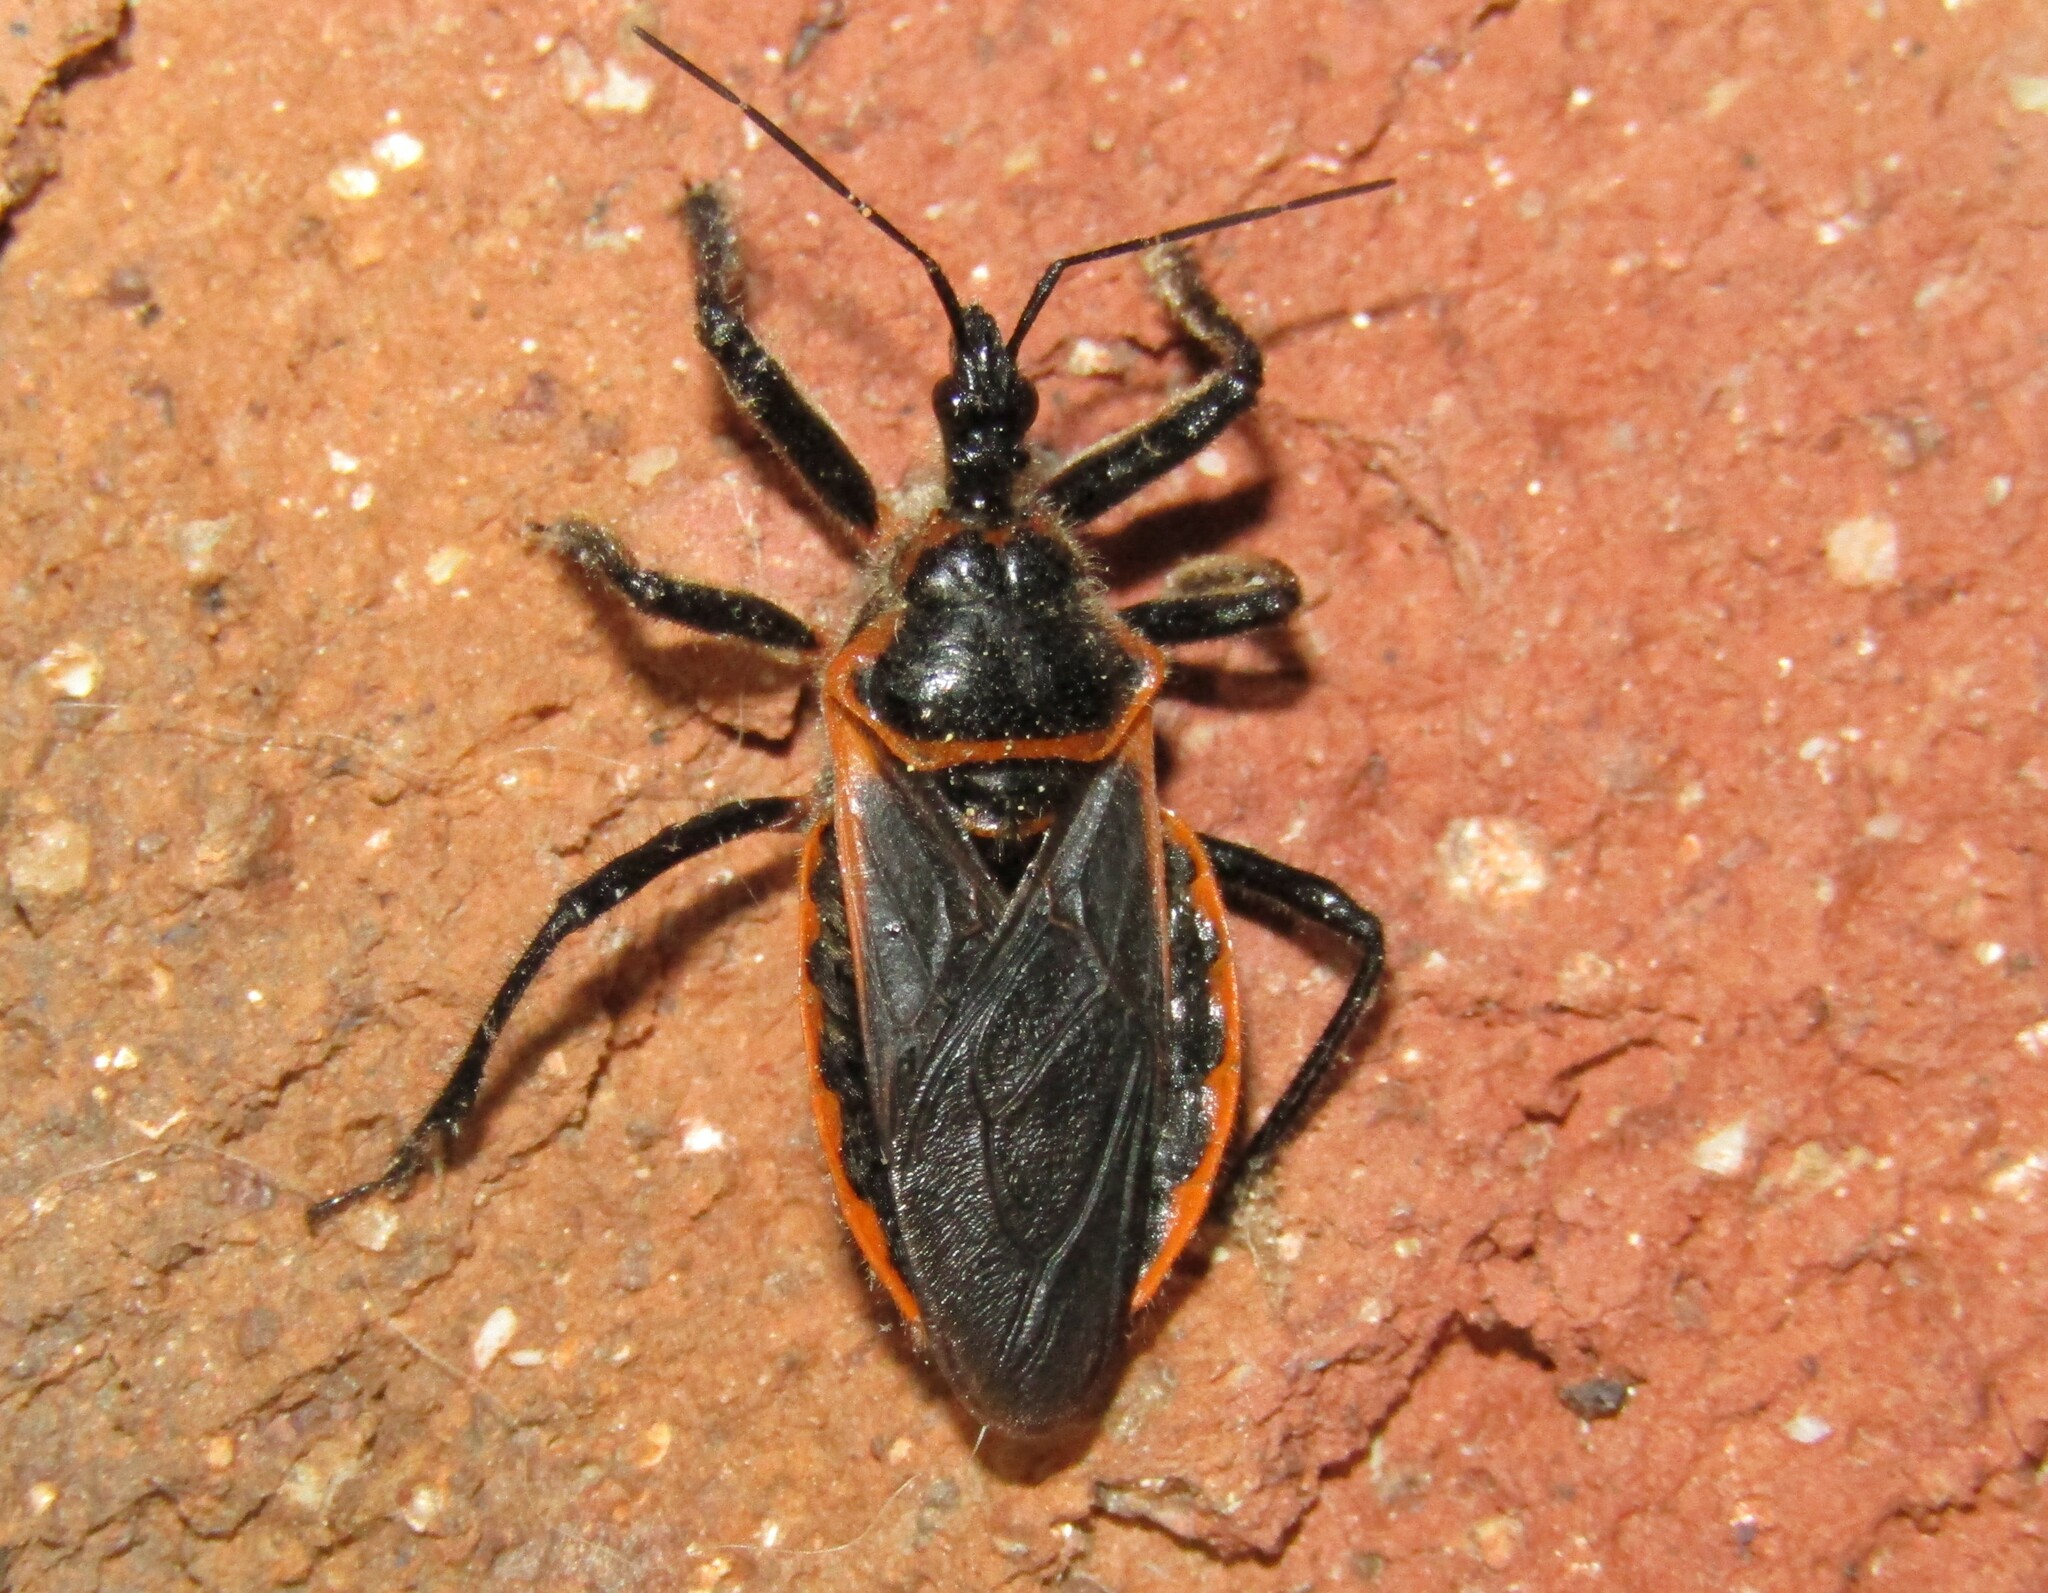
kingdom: Animalia
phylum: Arthropoda
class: Insecta
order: Hemiptera
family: Reduviidae
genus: Apiomerus
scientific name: Apiomerus crassipes
